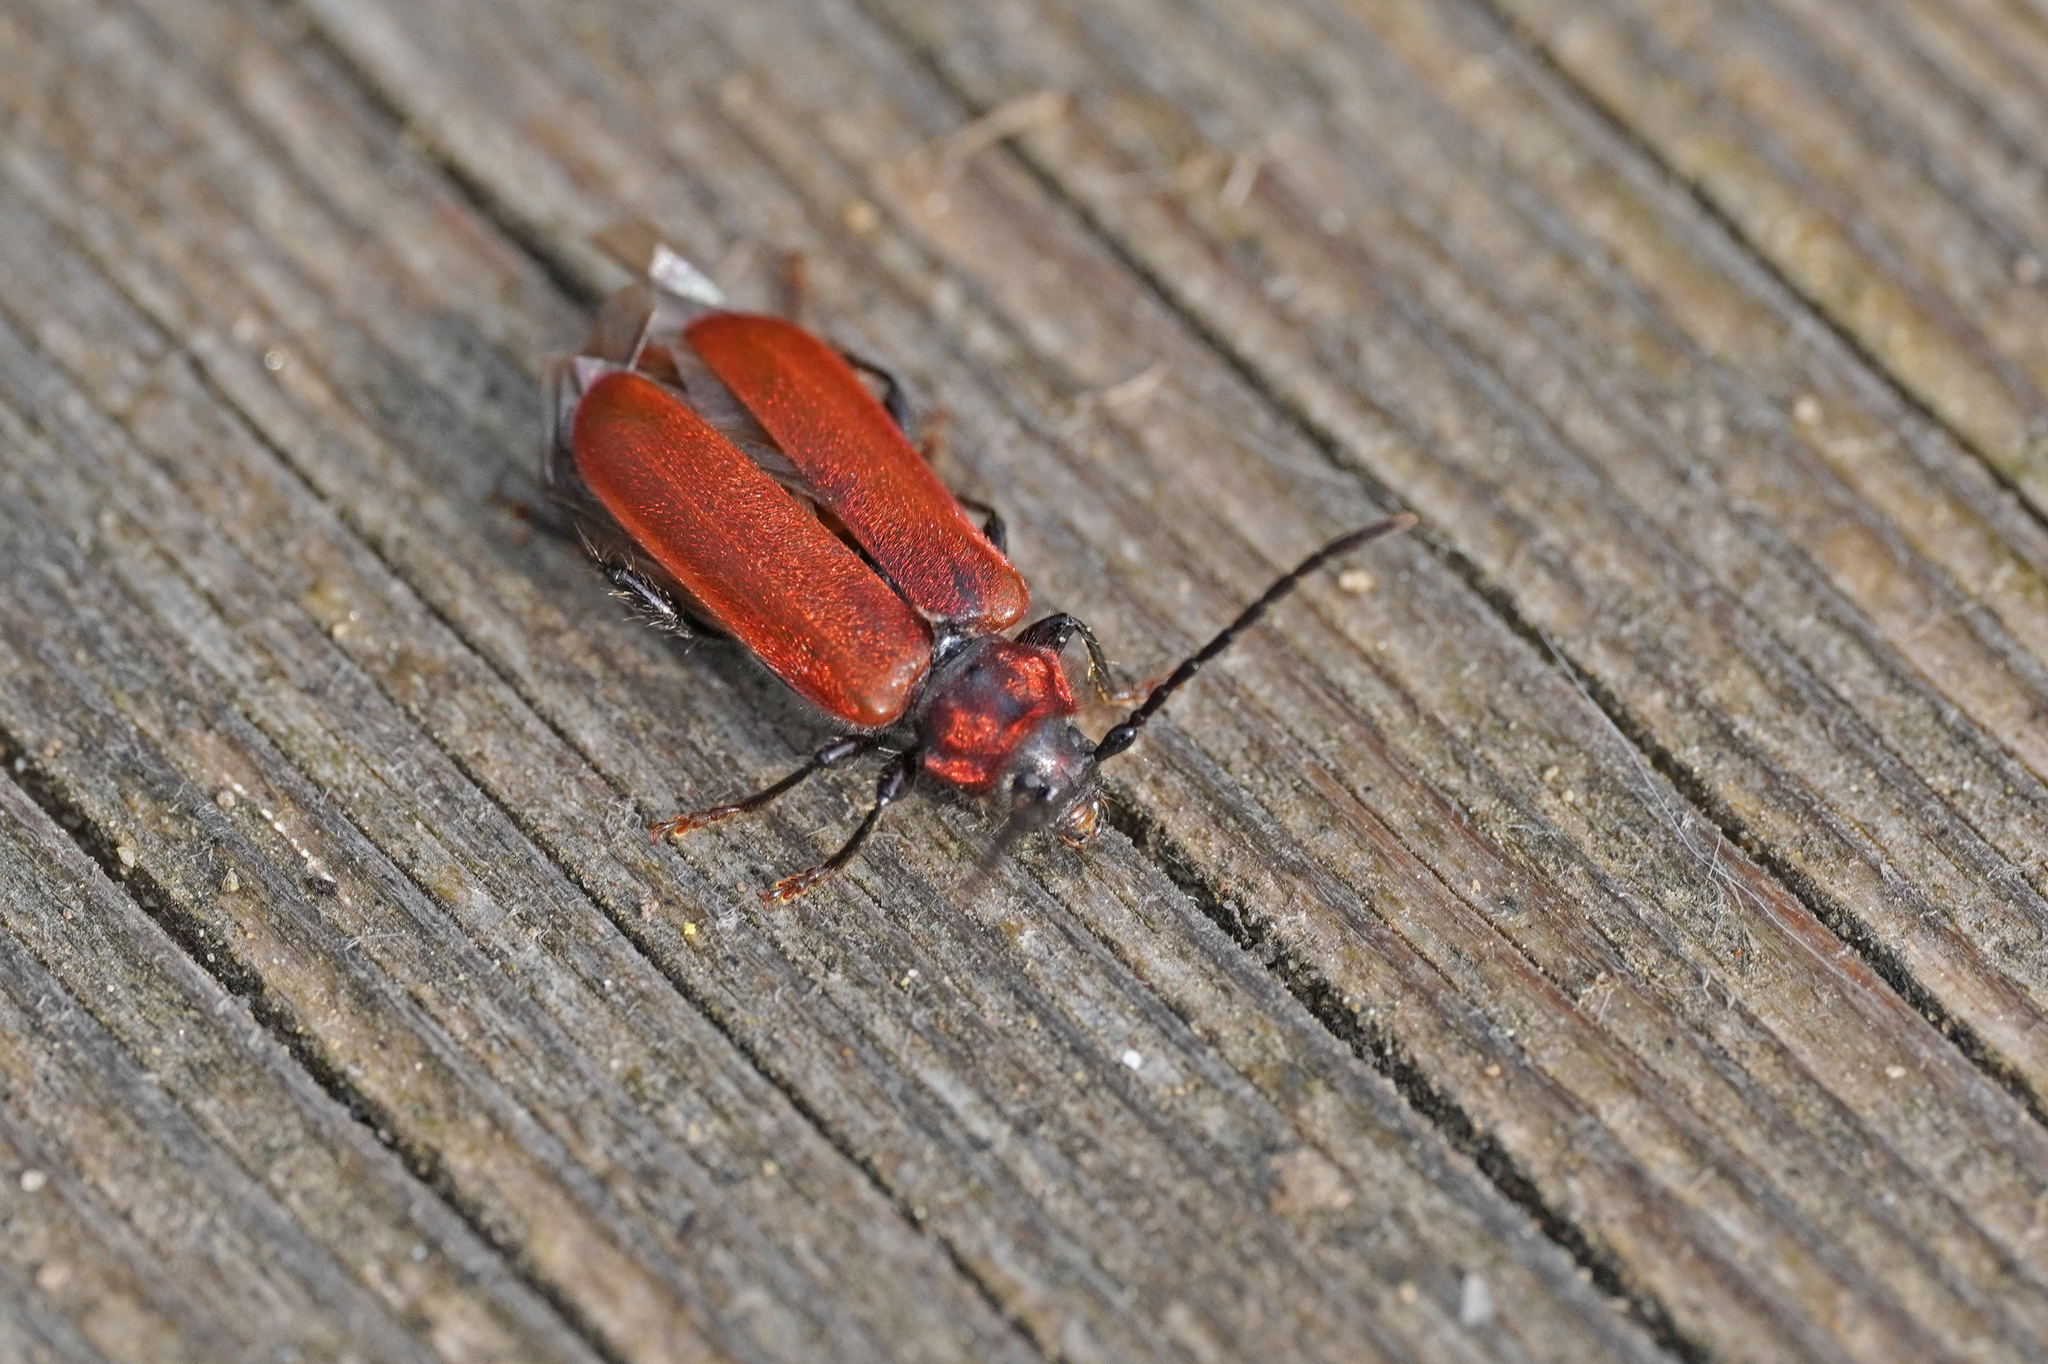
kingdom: Animalia
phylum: Arthropoda
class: Insecta
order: Coleoptera
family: Cerambycidae
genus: Pyrrhidium
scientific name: Pyrrhidium sanguineum
